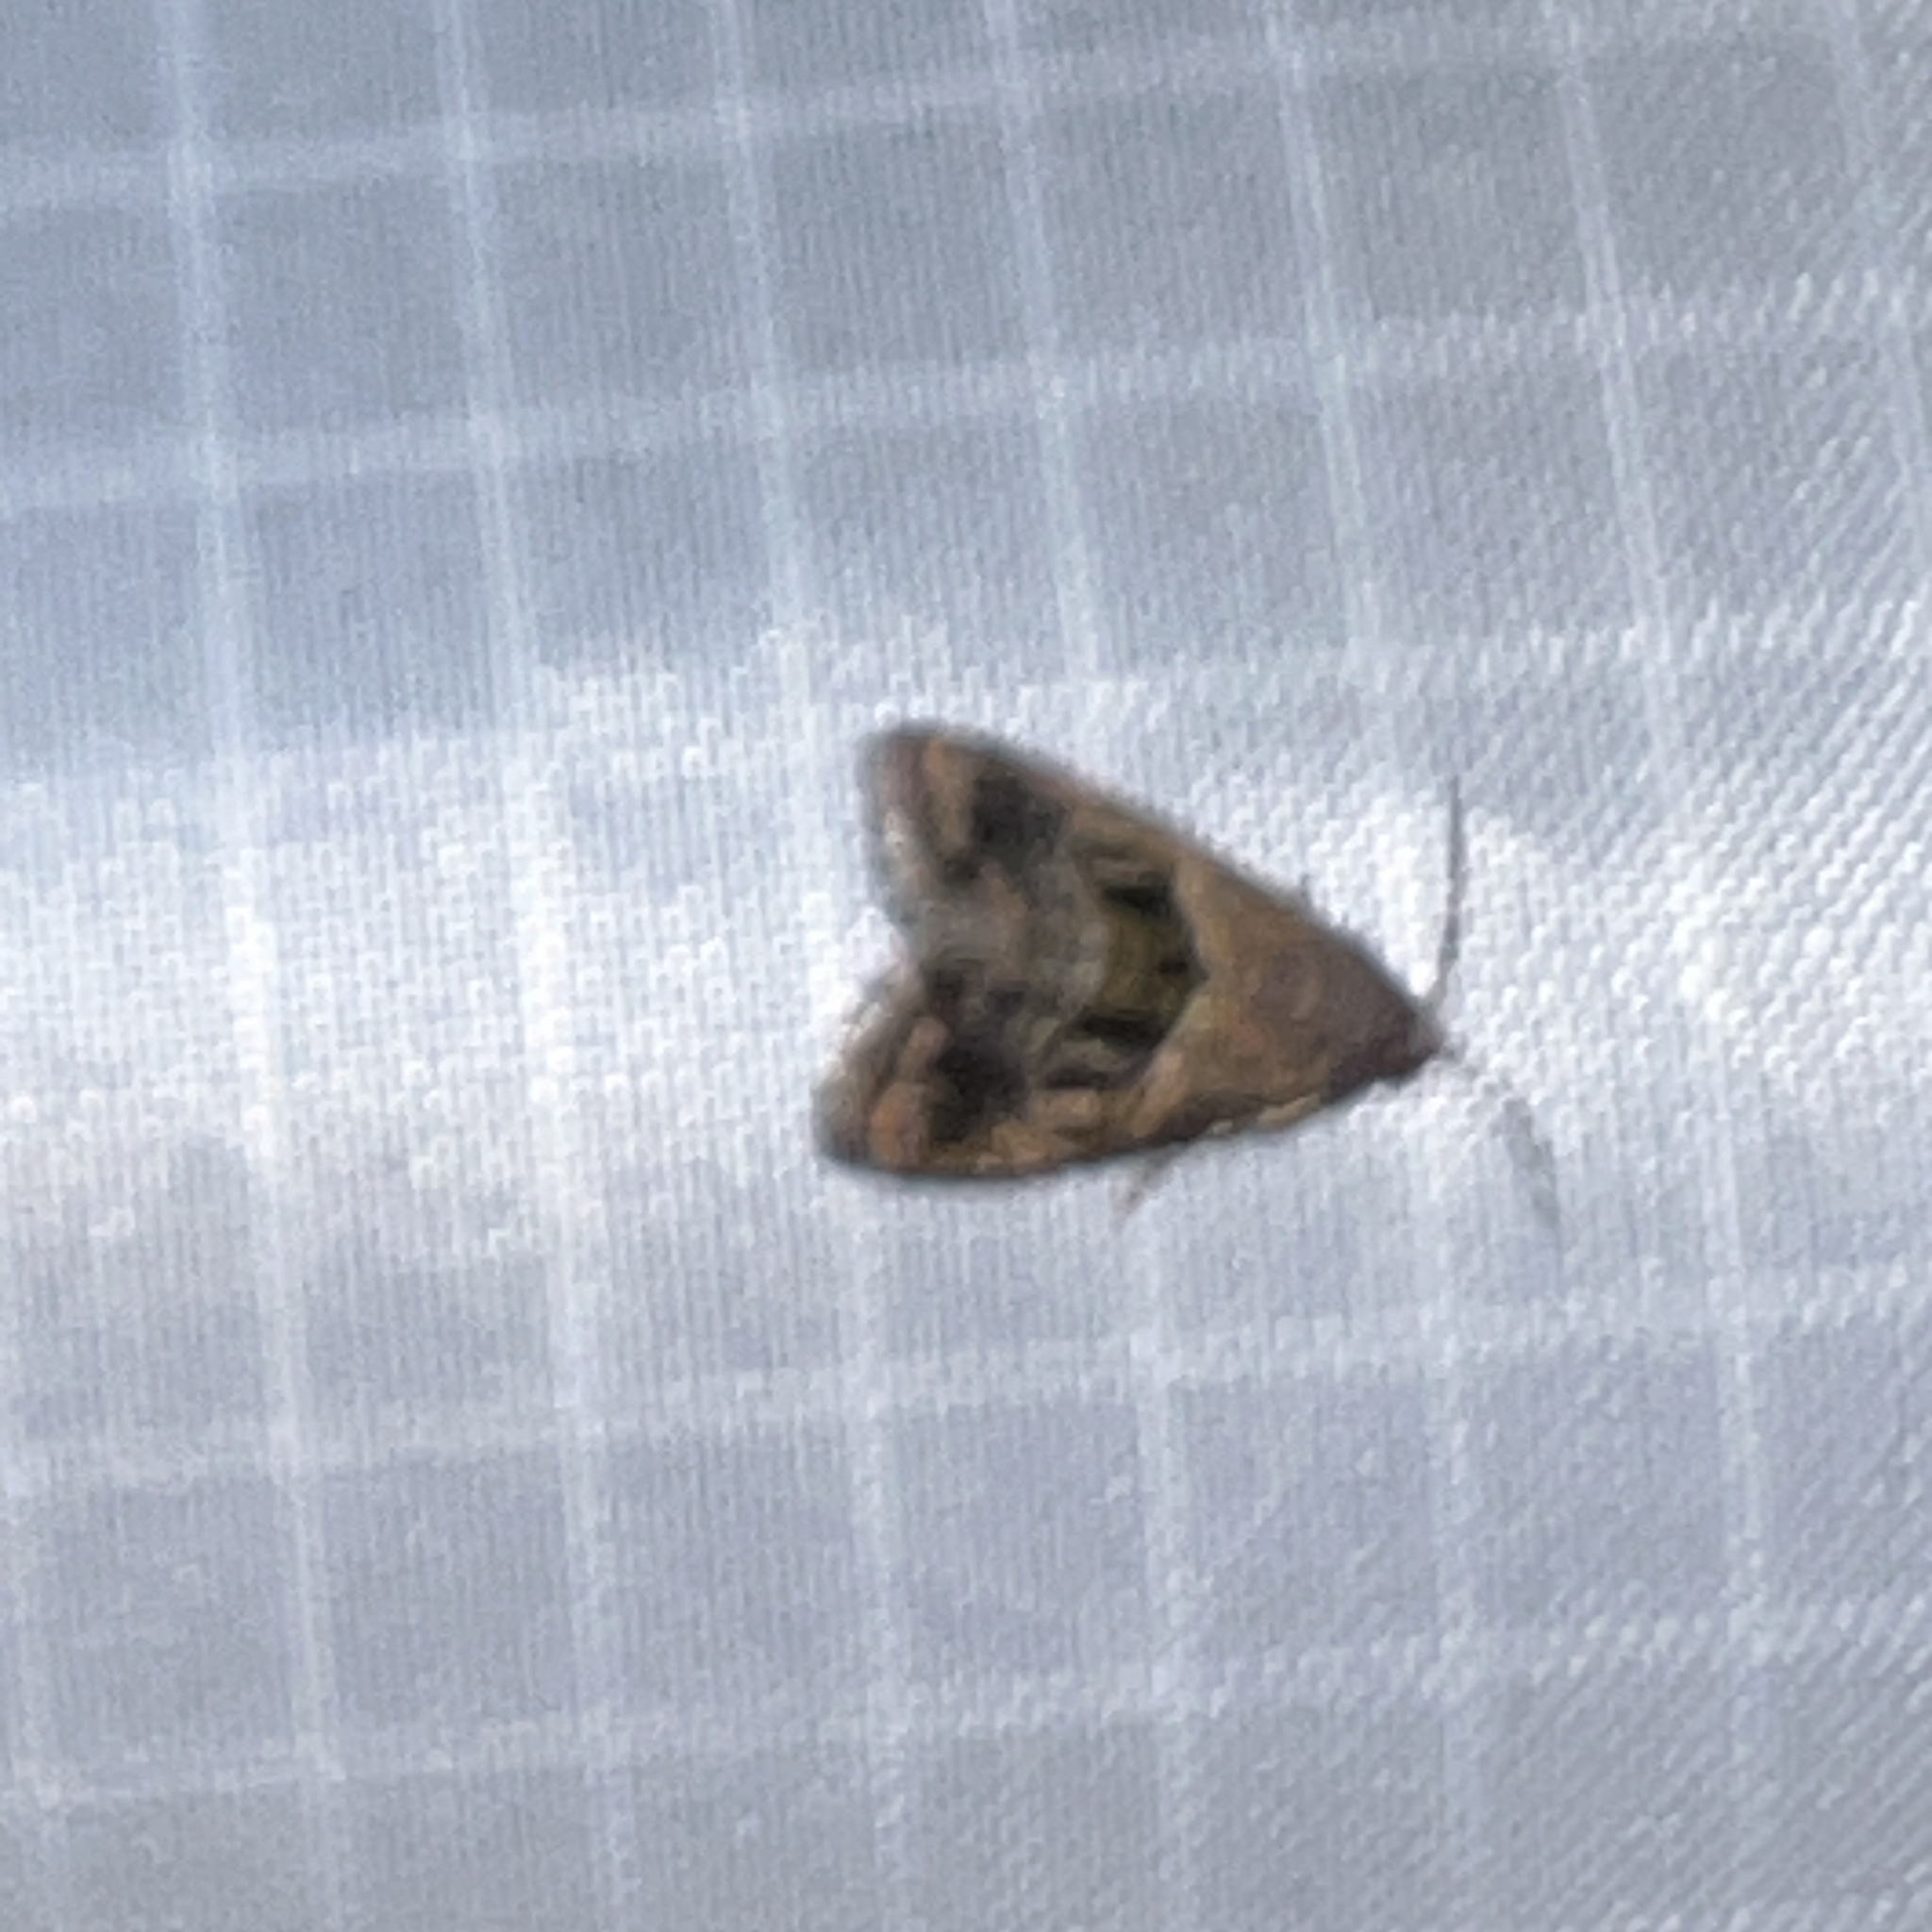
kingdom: Animalia
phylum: Arthropoda
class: Insecta
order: Lepidoptera
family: Noctuidae
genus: Tripudia
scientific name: Tripudia quadrifera
